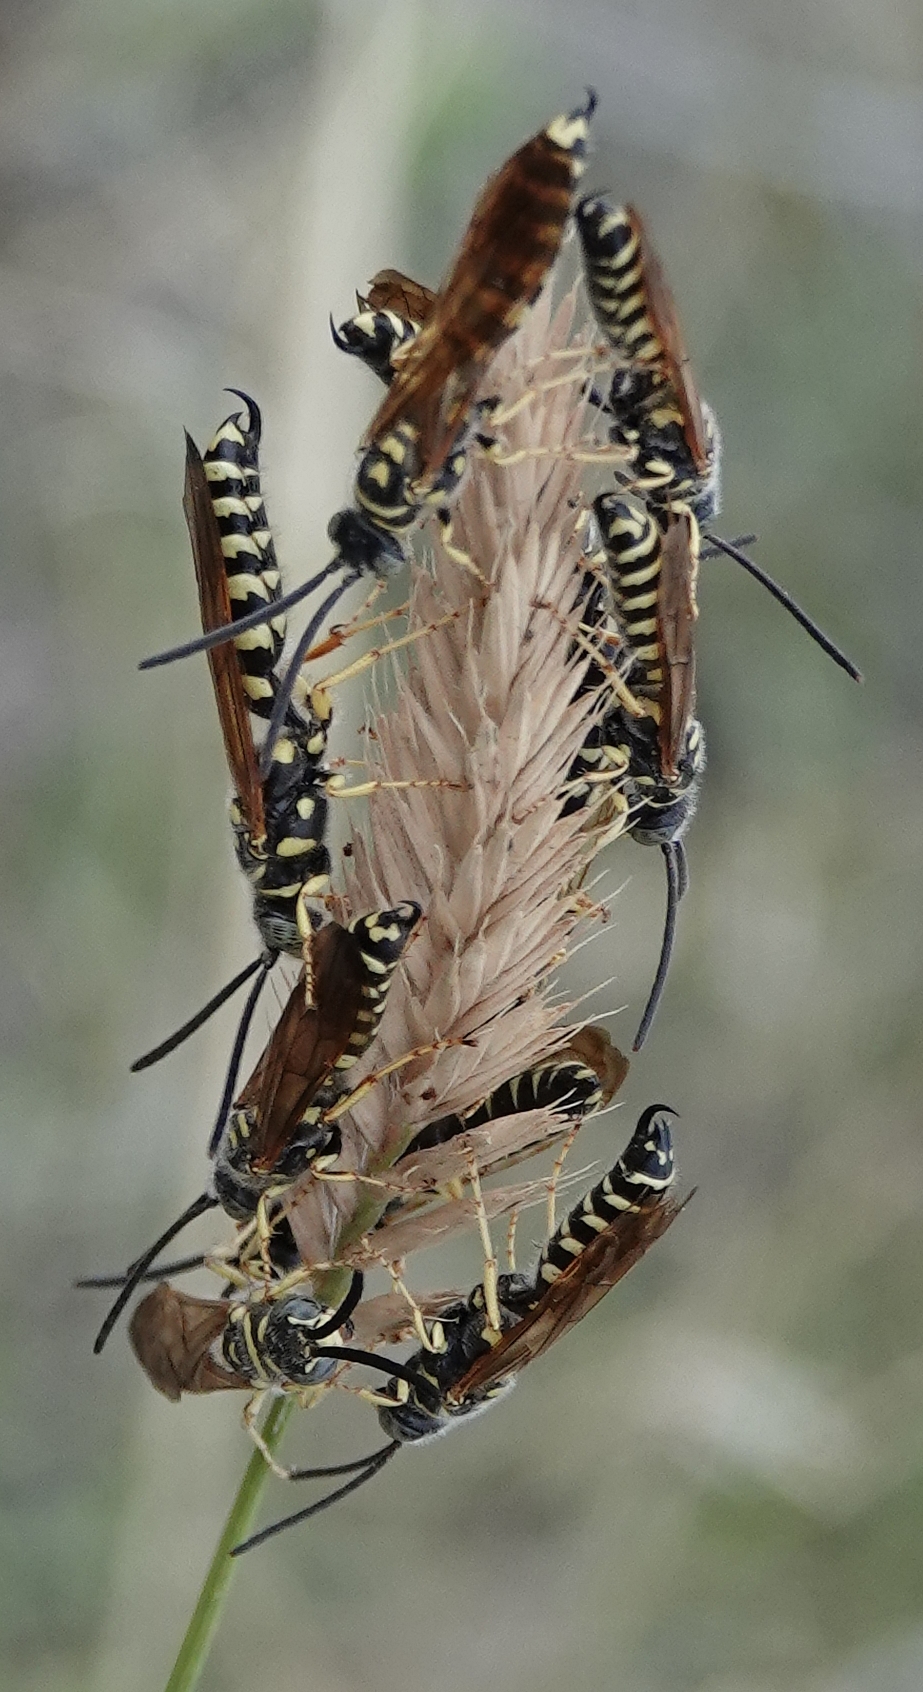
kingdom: Animalia
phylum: Arthropoda
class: Insecta
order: Hymenoptera
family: Tiphiidae
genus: Myzinum
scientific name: Myzinum quinquecinctum
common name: Five-banded thynnid wasp
